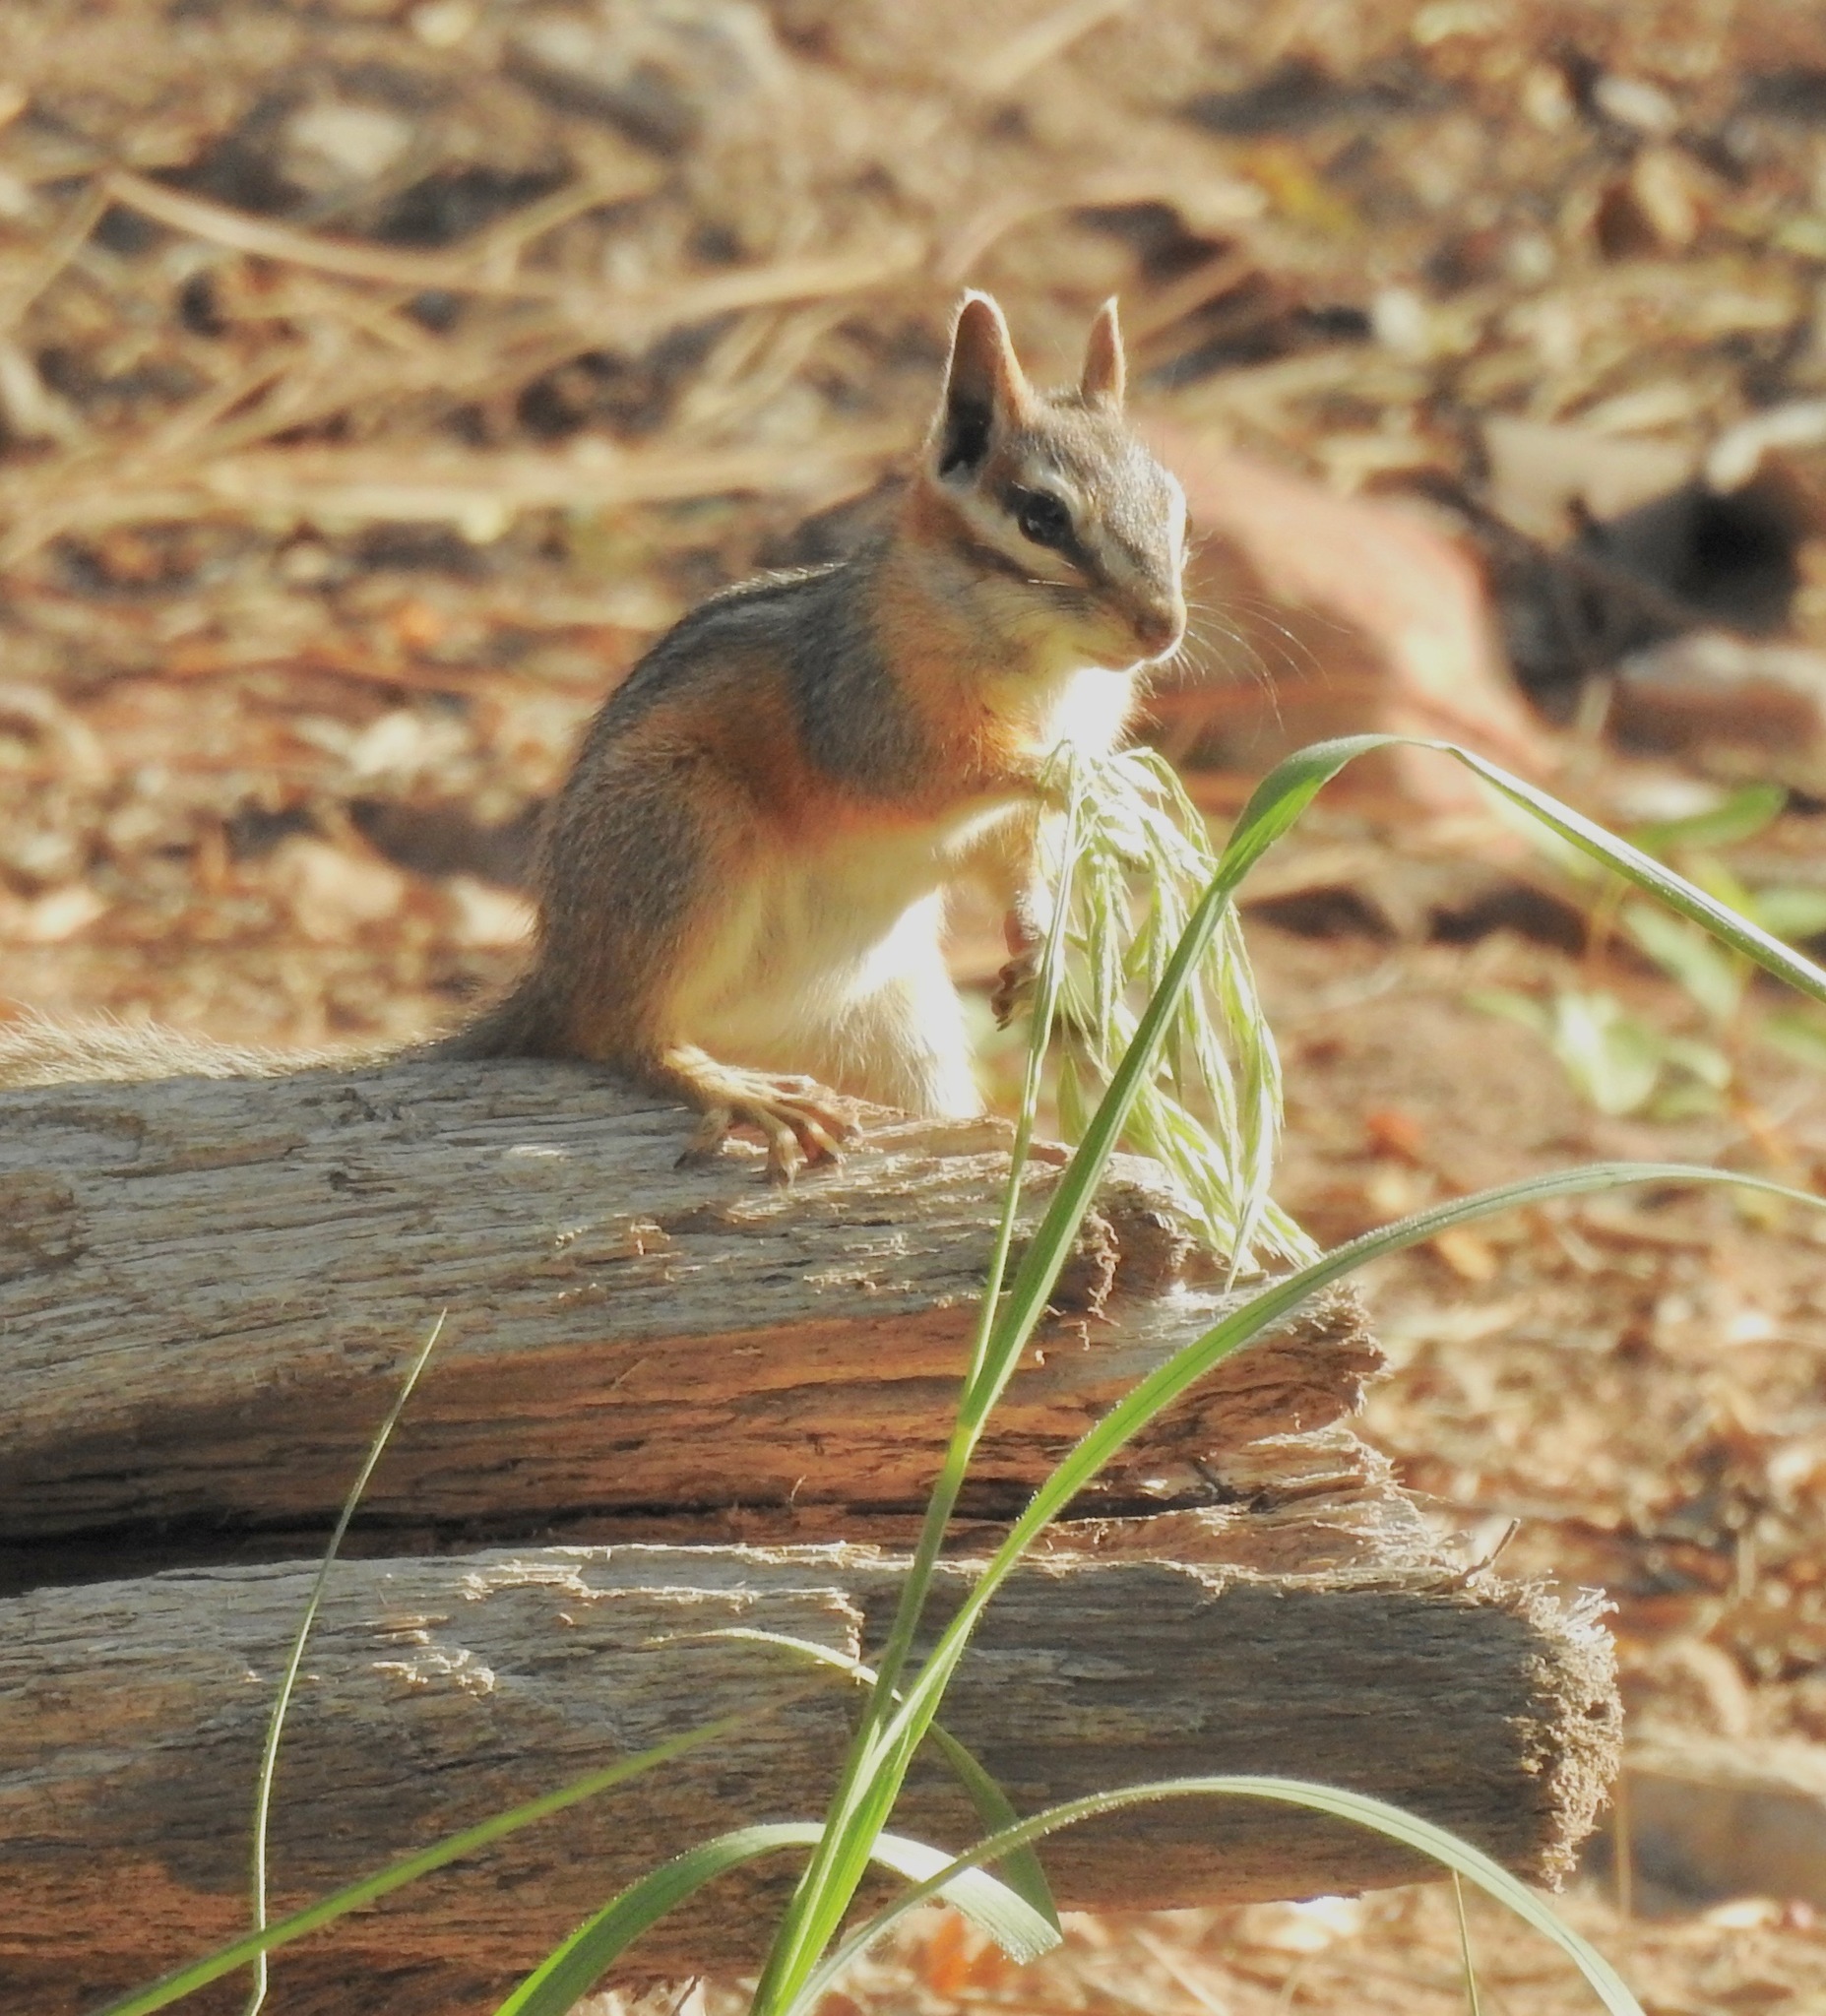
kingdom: Animalia
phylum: Chordata
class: Mammalia
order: Rodentia
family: Sciuridae
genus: Tamias
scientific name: Tamias dorsalis
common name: Cliff chipmunk
